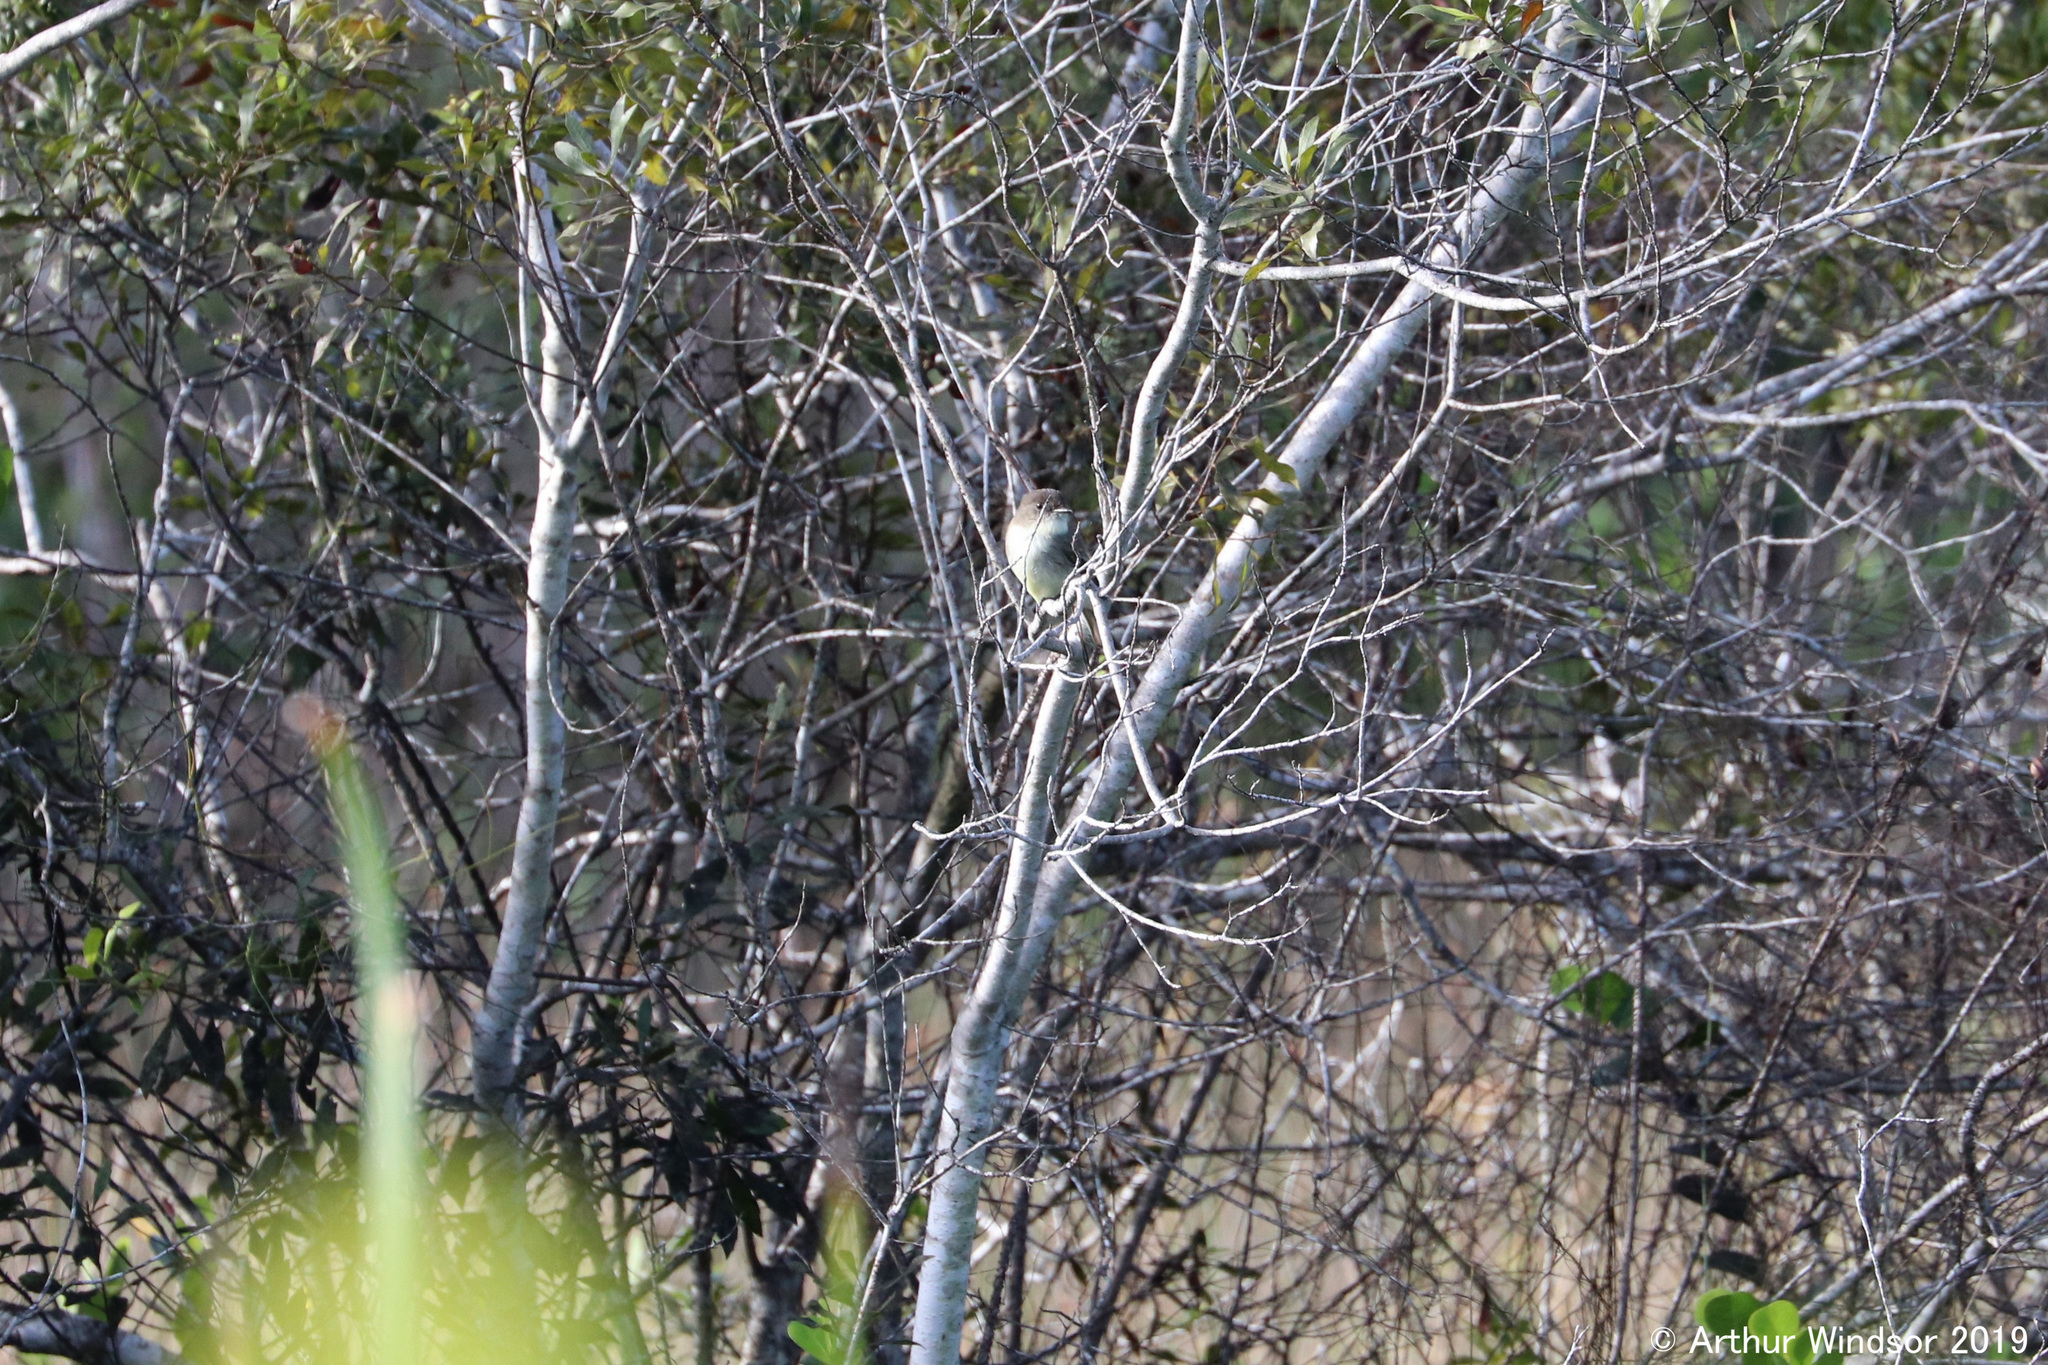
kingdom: Animalia
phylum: Chordata
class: Aves
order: Passeriformes
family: Tyrannidae
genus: Sayornis
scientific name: Sayornis phoebe
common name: Eastern phoebe
